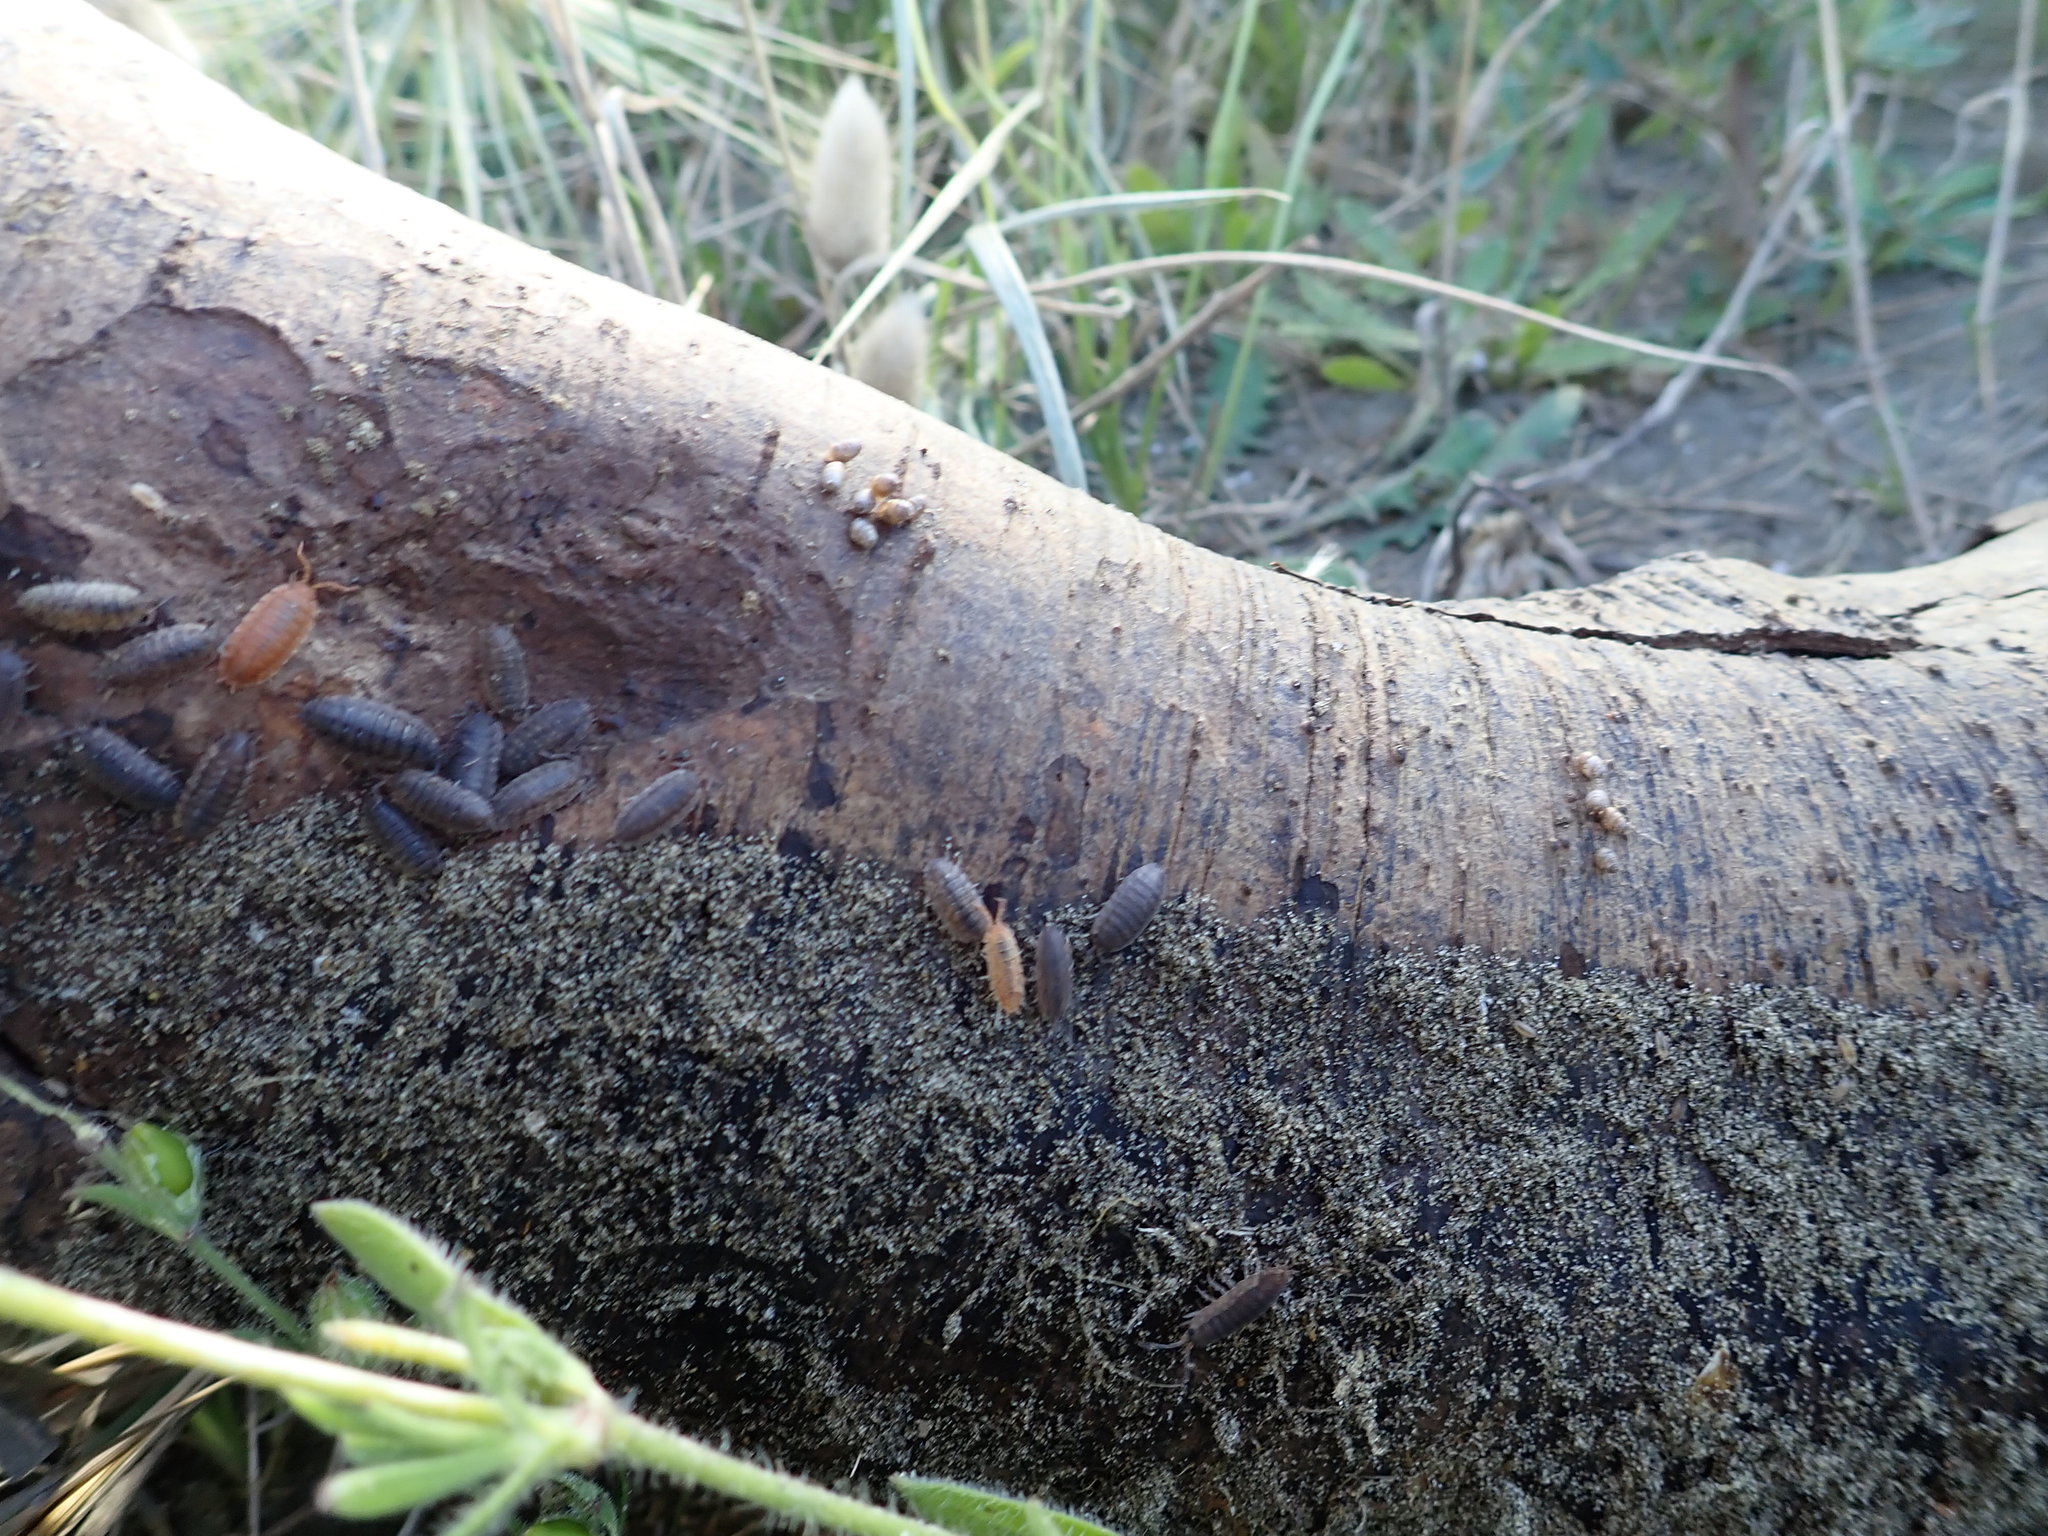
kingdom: Animalia
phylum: Mollusca
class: Gastropoda
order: Stylommatophora
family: Lauriidae
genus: Lauria
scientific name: Lauria cylindracea
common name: Common chrysalis snail
